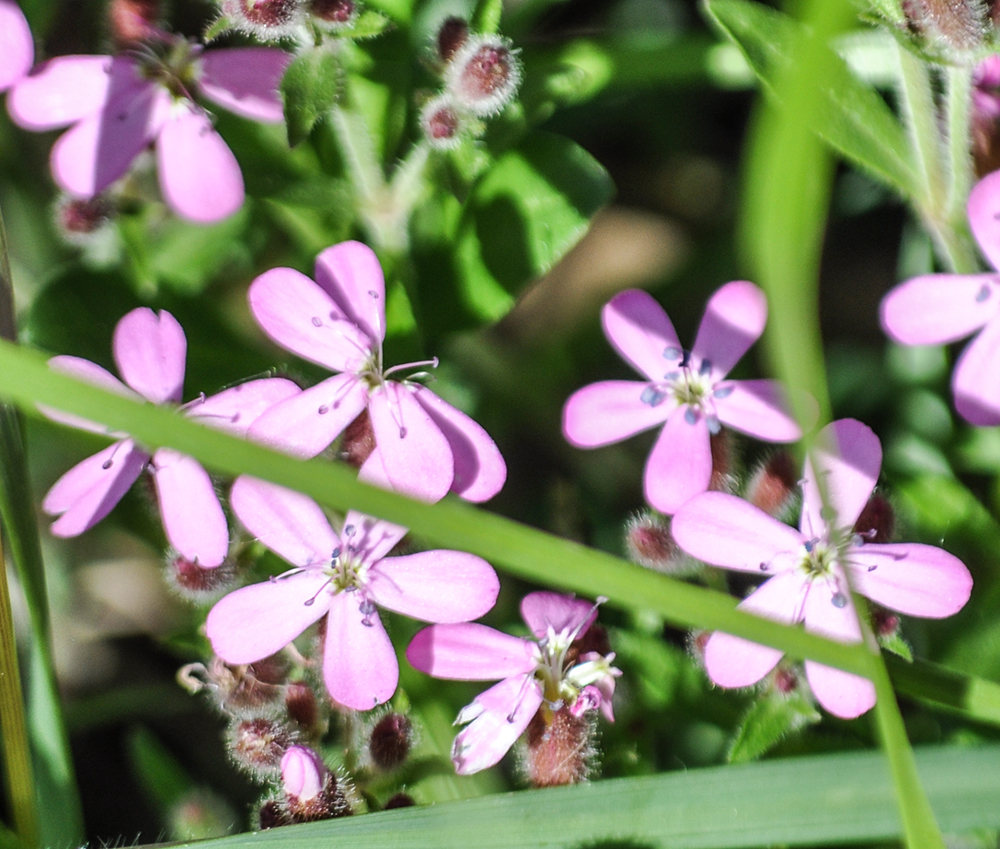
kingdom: Plantae
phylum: Tracheophyta
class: Magnoliopsida
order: Caryophyllales
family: Caryophyllaceae
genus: Saponaria
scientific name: Saponaria ocymoides
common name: Rock soapwort
